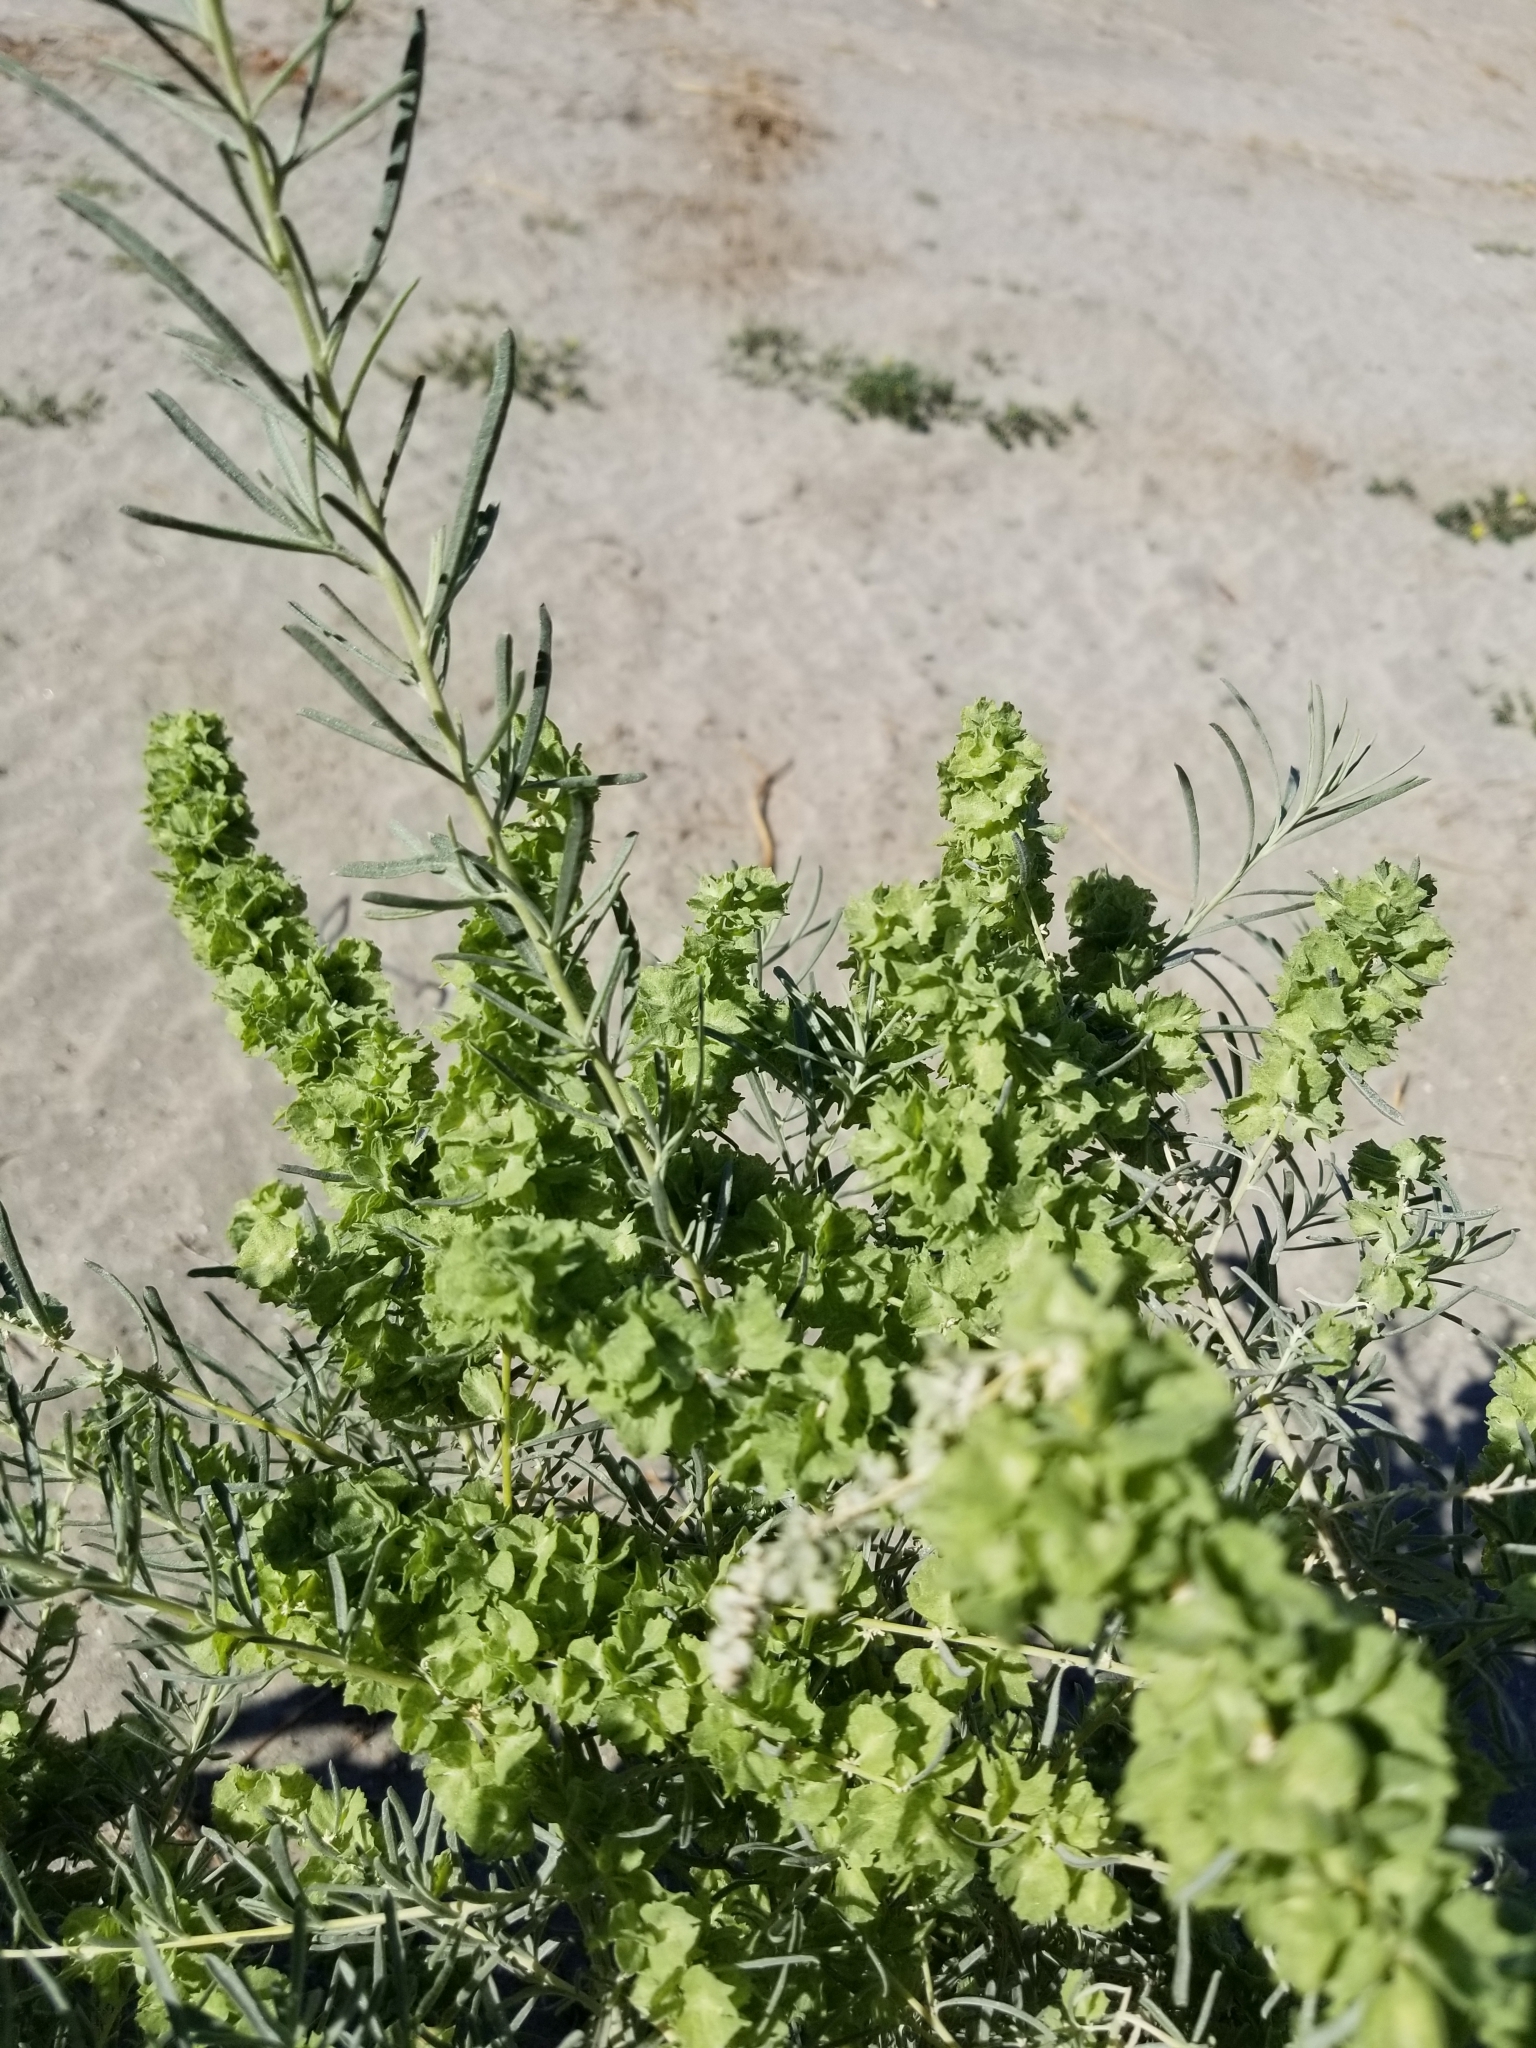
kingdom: Plantae
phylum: Tracheophyta
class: Magnoliopsida
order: Caryophyllales
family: Amaranthaceae
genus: Atriplex
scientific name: Atriplex canescens
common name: Four-wing saltbush
